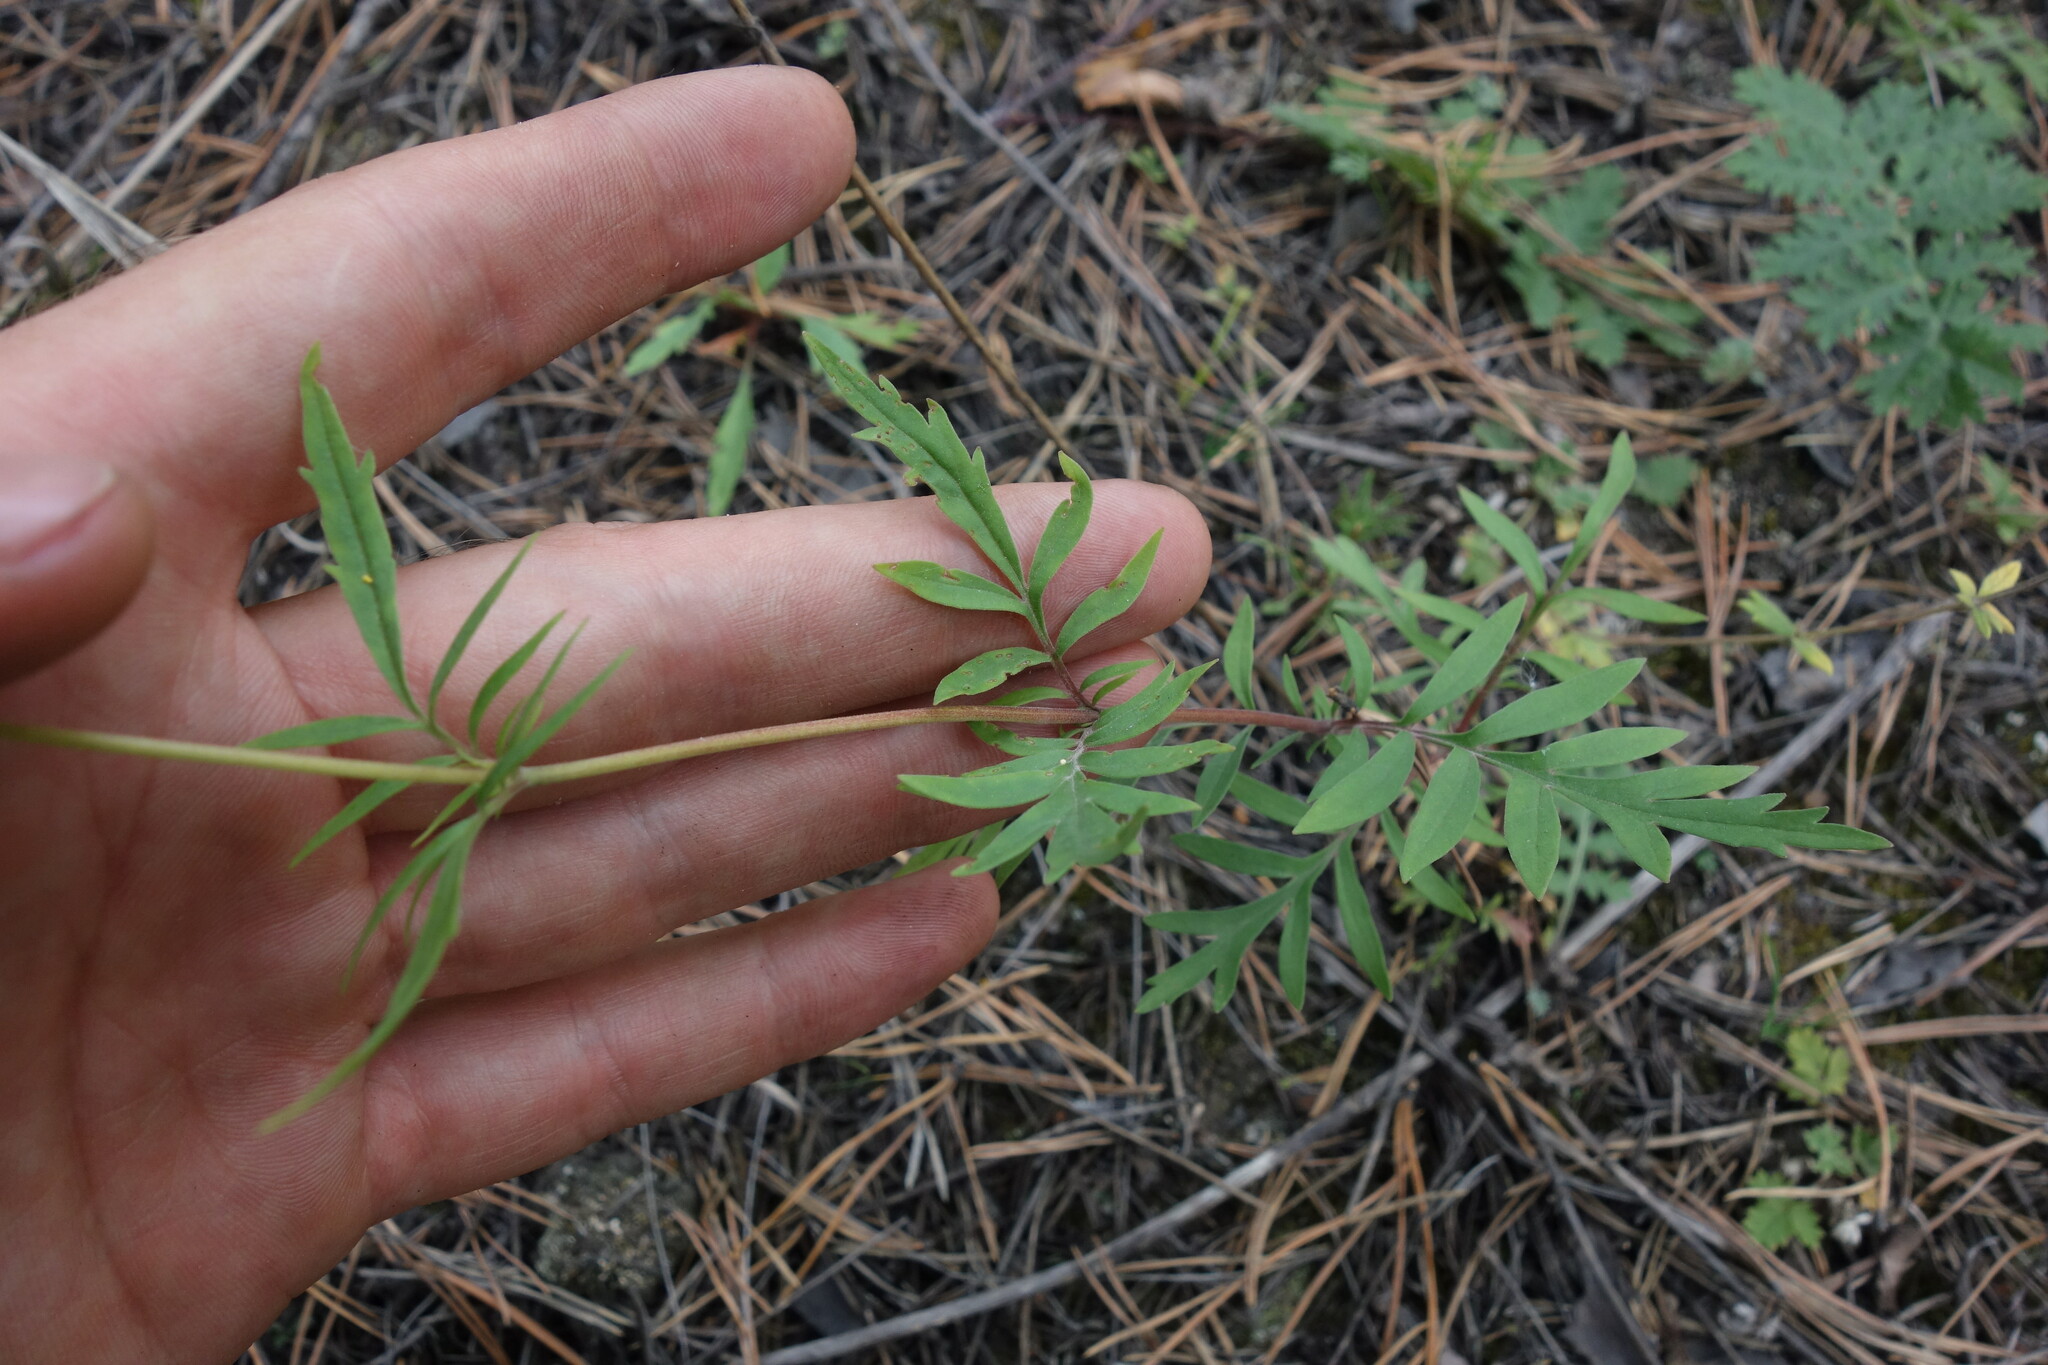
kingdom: Plantae
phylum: Tracheophyta
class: Magnoliopsida
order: Dipsacales
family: Caprifoliaceae
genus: Patrinia
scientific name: Patrinia rupestris
